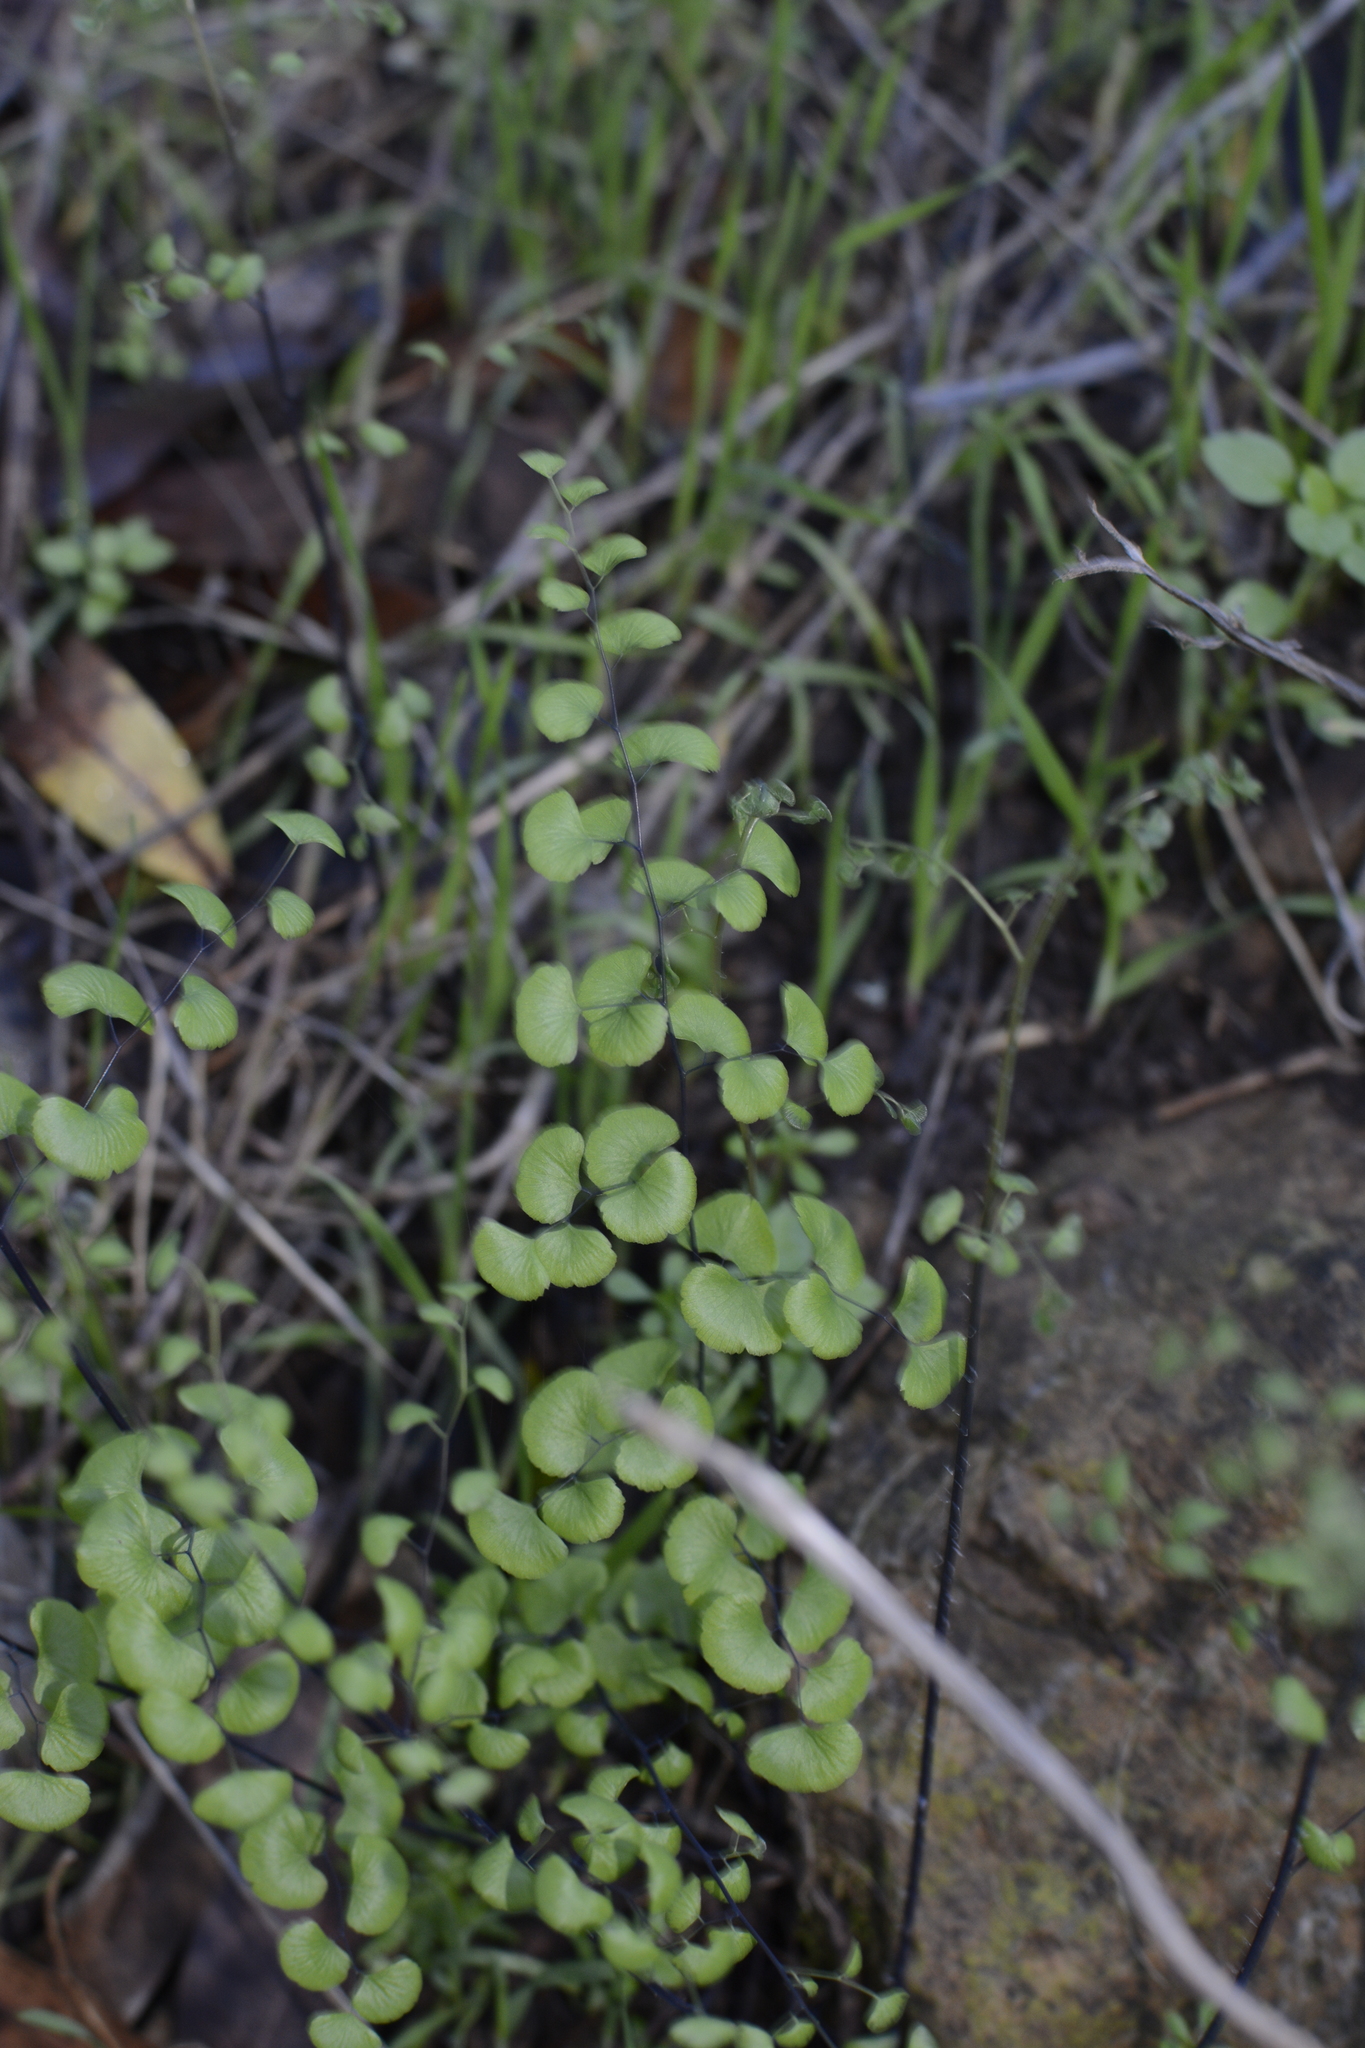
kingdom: Plantae
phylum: Tracheophyta
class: Polypodiopsida
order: Polypodiales
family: Pteridaceae
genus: Adiantum
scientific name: Adiantum jordanii
